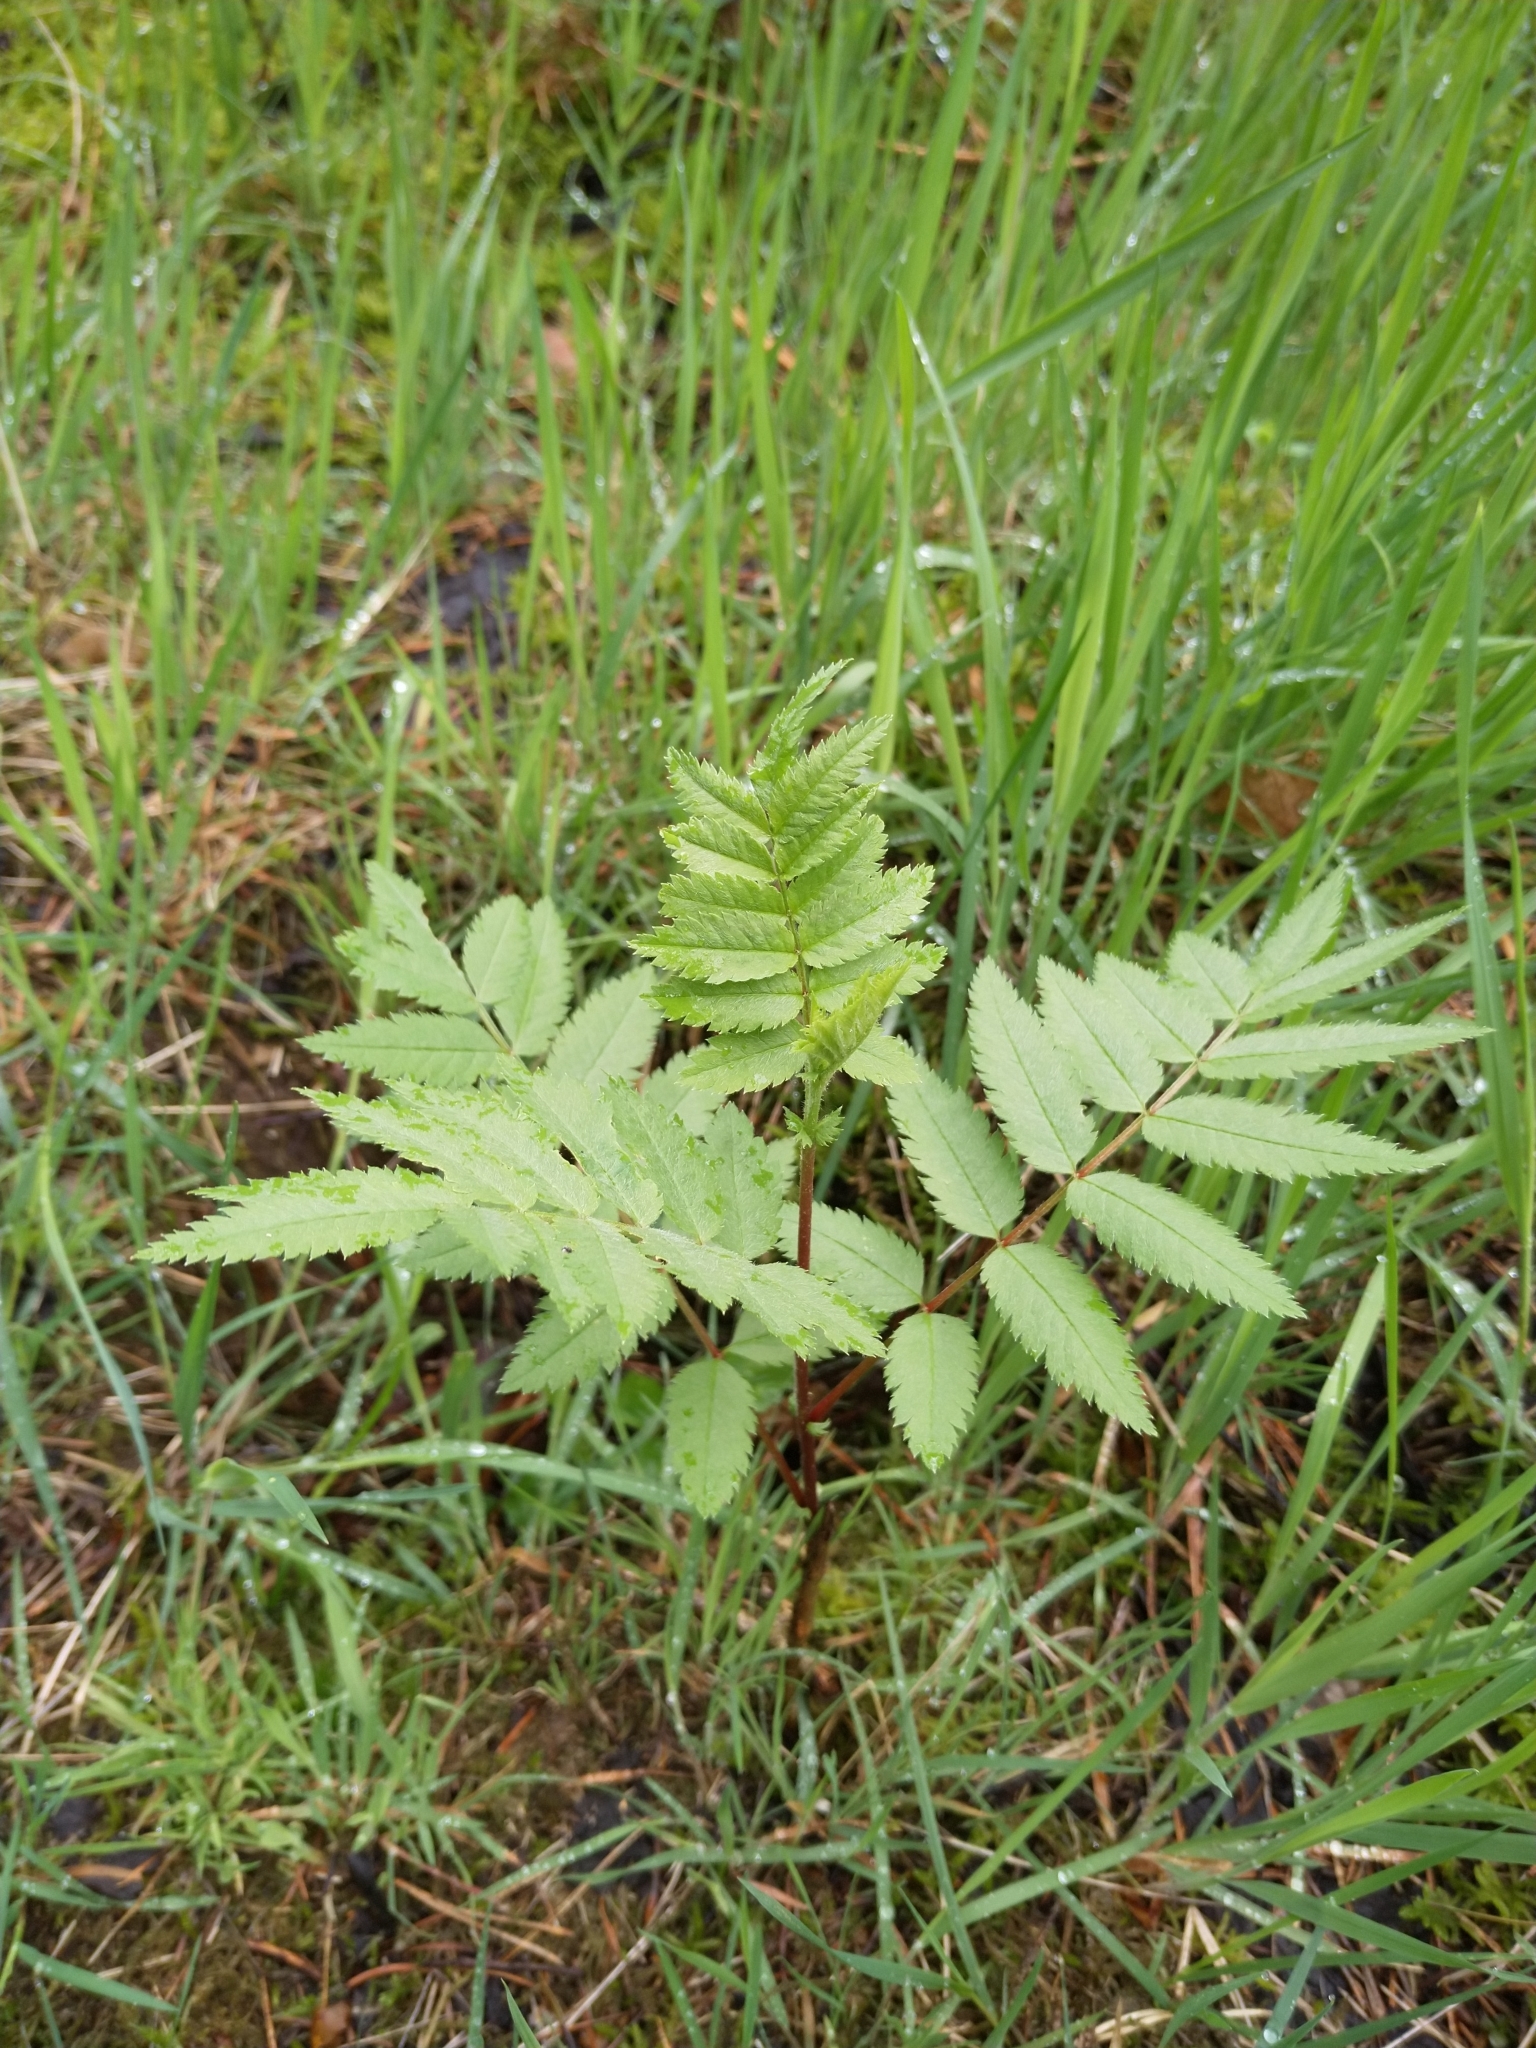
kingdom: Plantae
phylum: Tracheophyta
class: Magnoliopsida
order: Rosales
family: Rosaceae
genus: Sorbus
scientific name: Sorbus aucuparia
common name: Rowan
